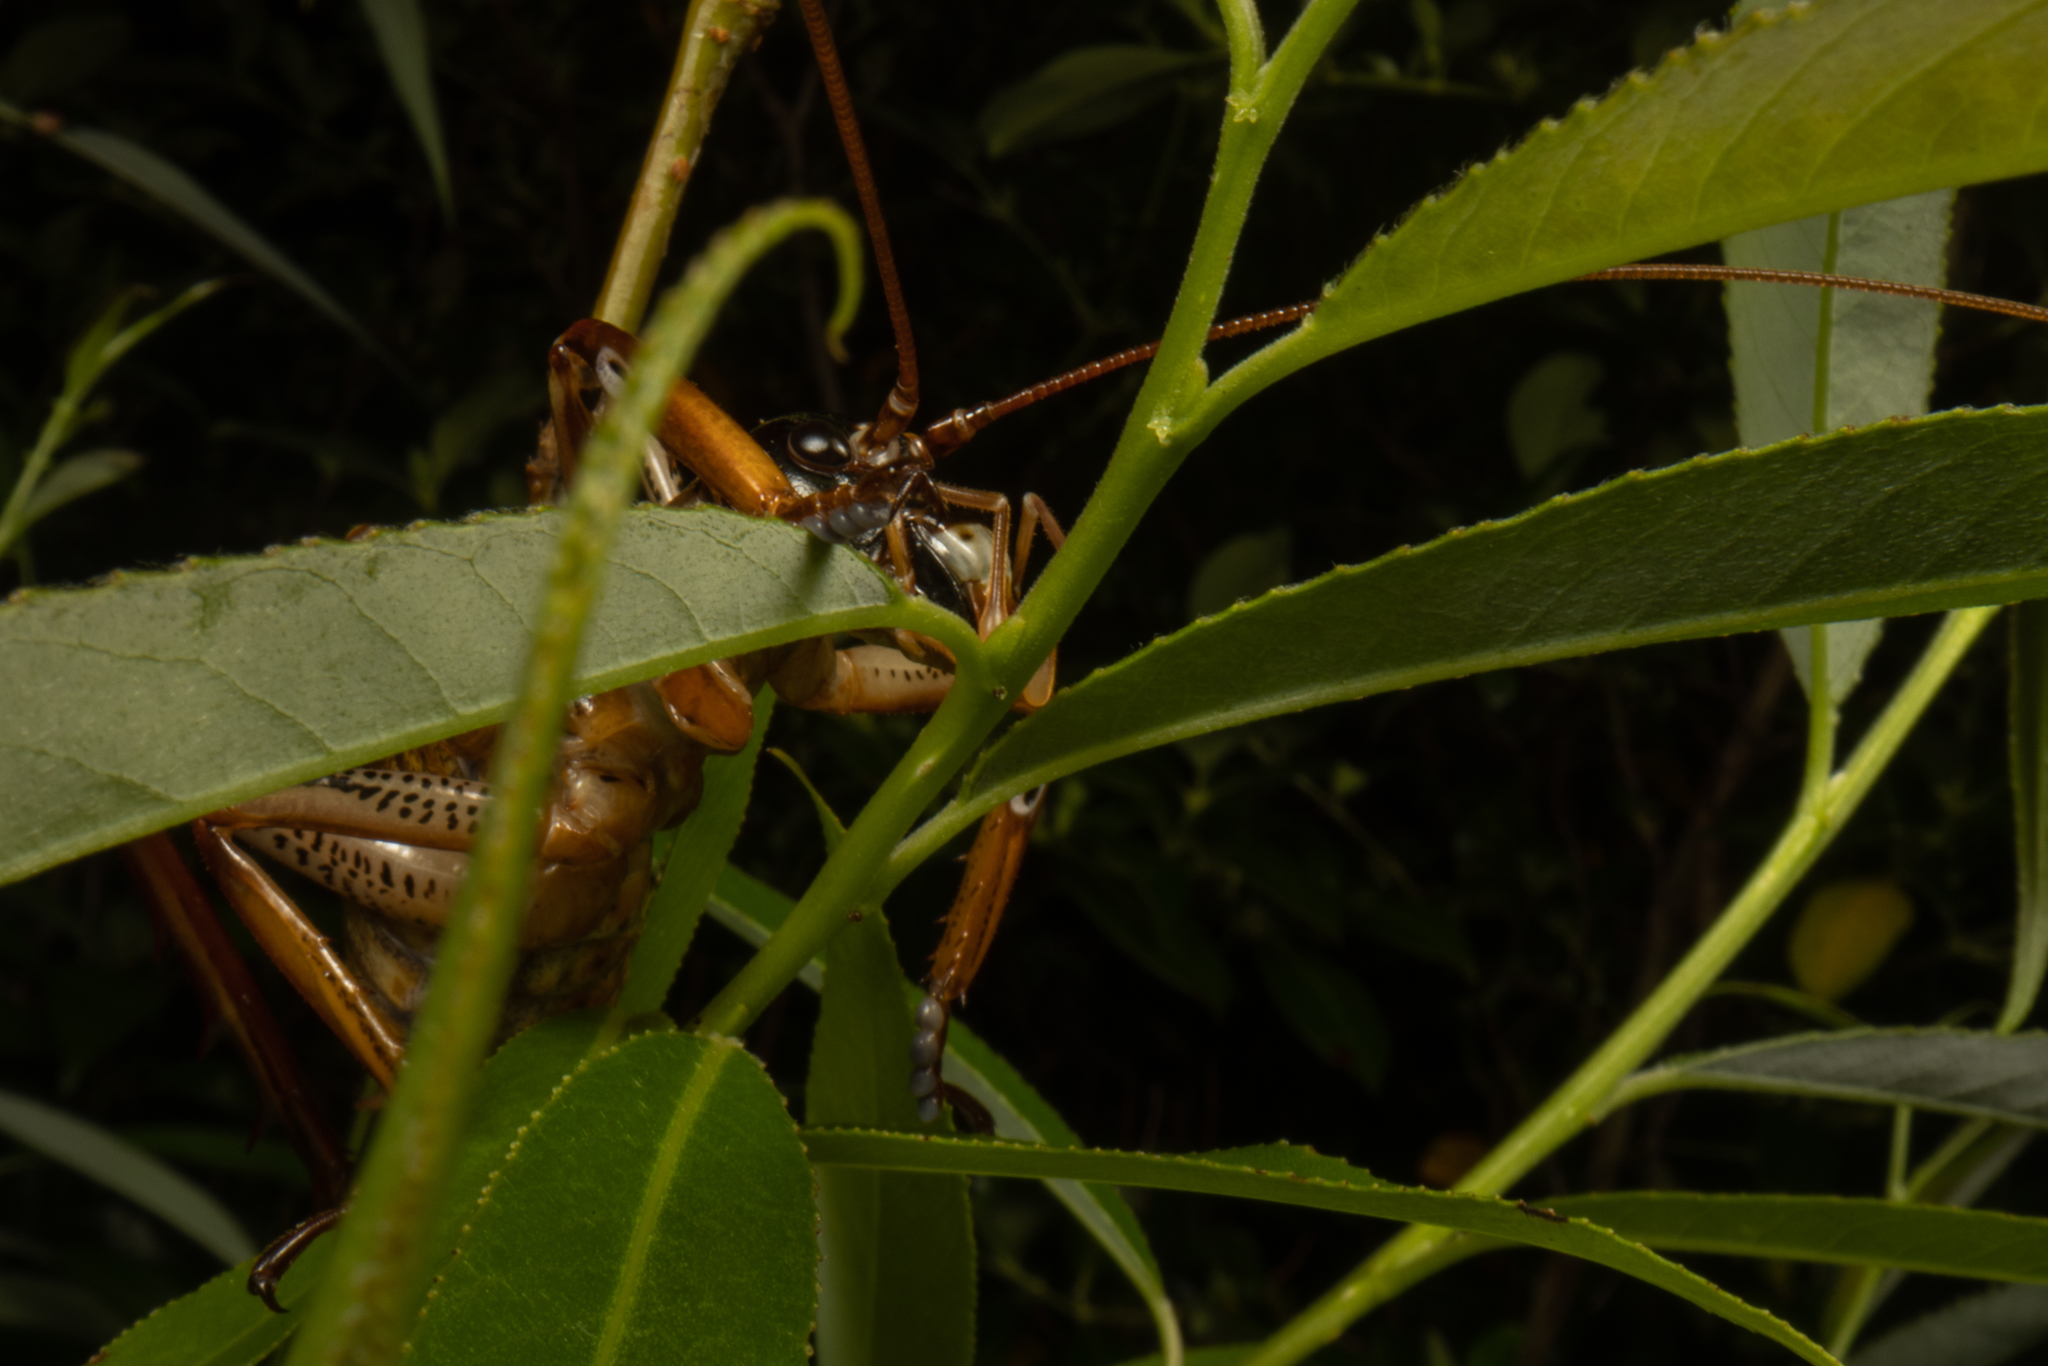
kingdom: Animalia
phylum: Arthropoda
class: Insecta
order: Orthoptera
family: Anostostomatidae
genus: Hemideina
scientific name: Hemideina thoracica
